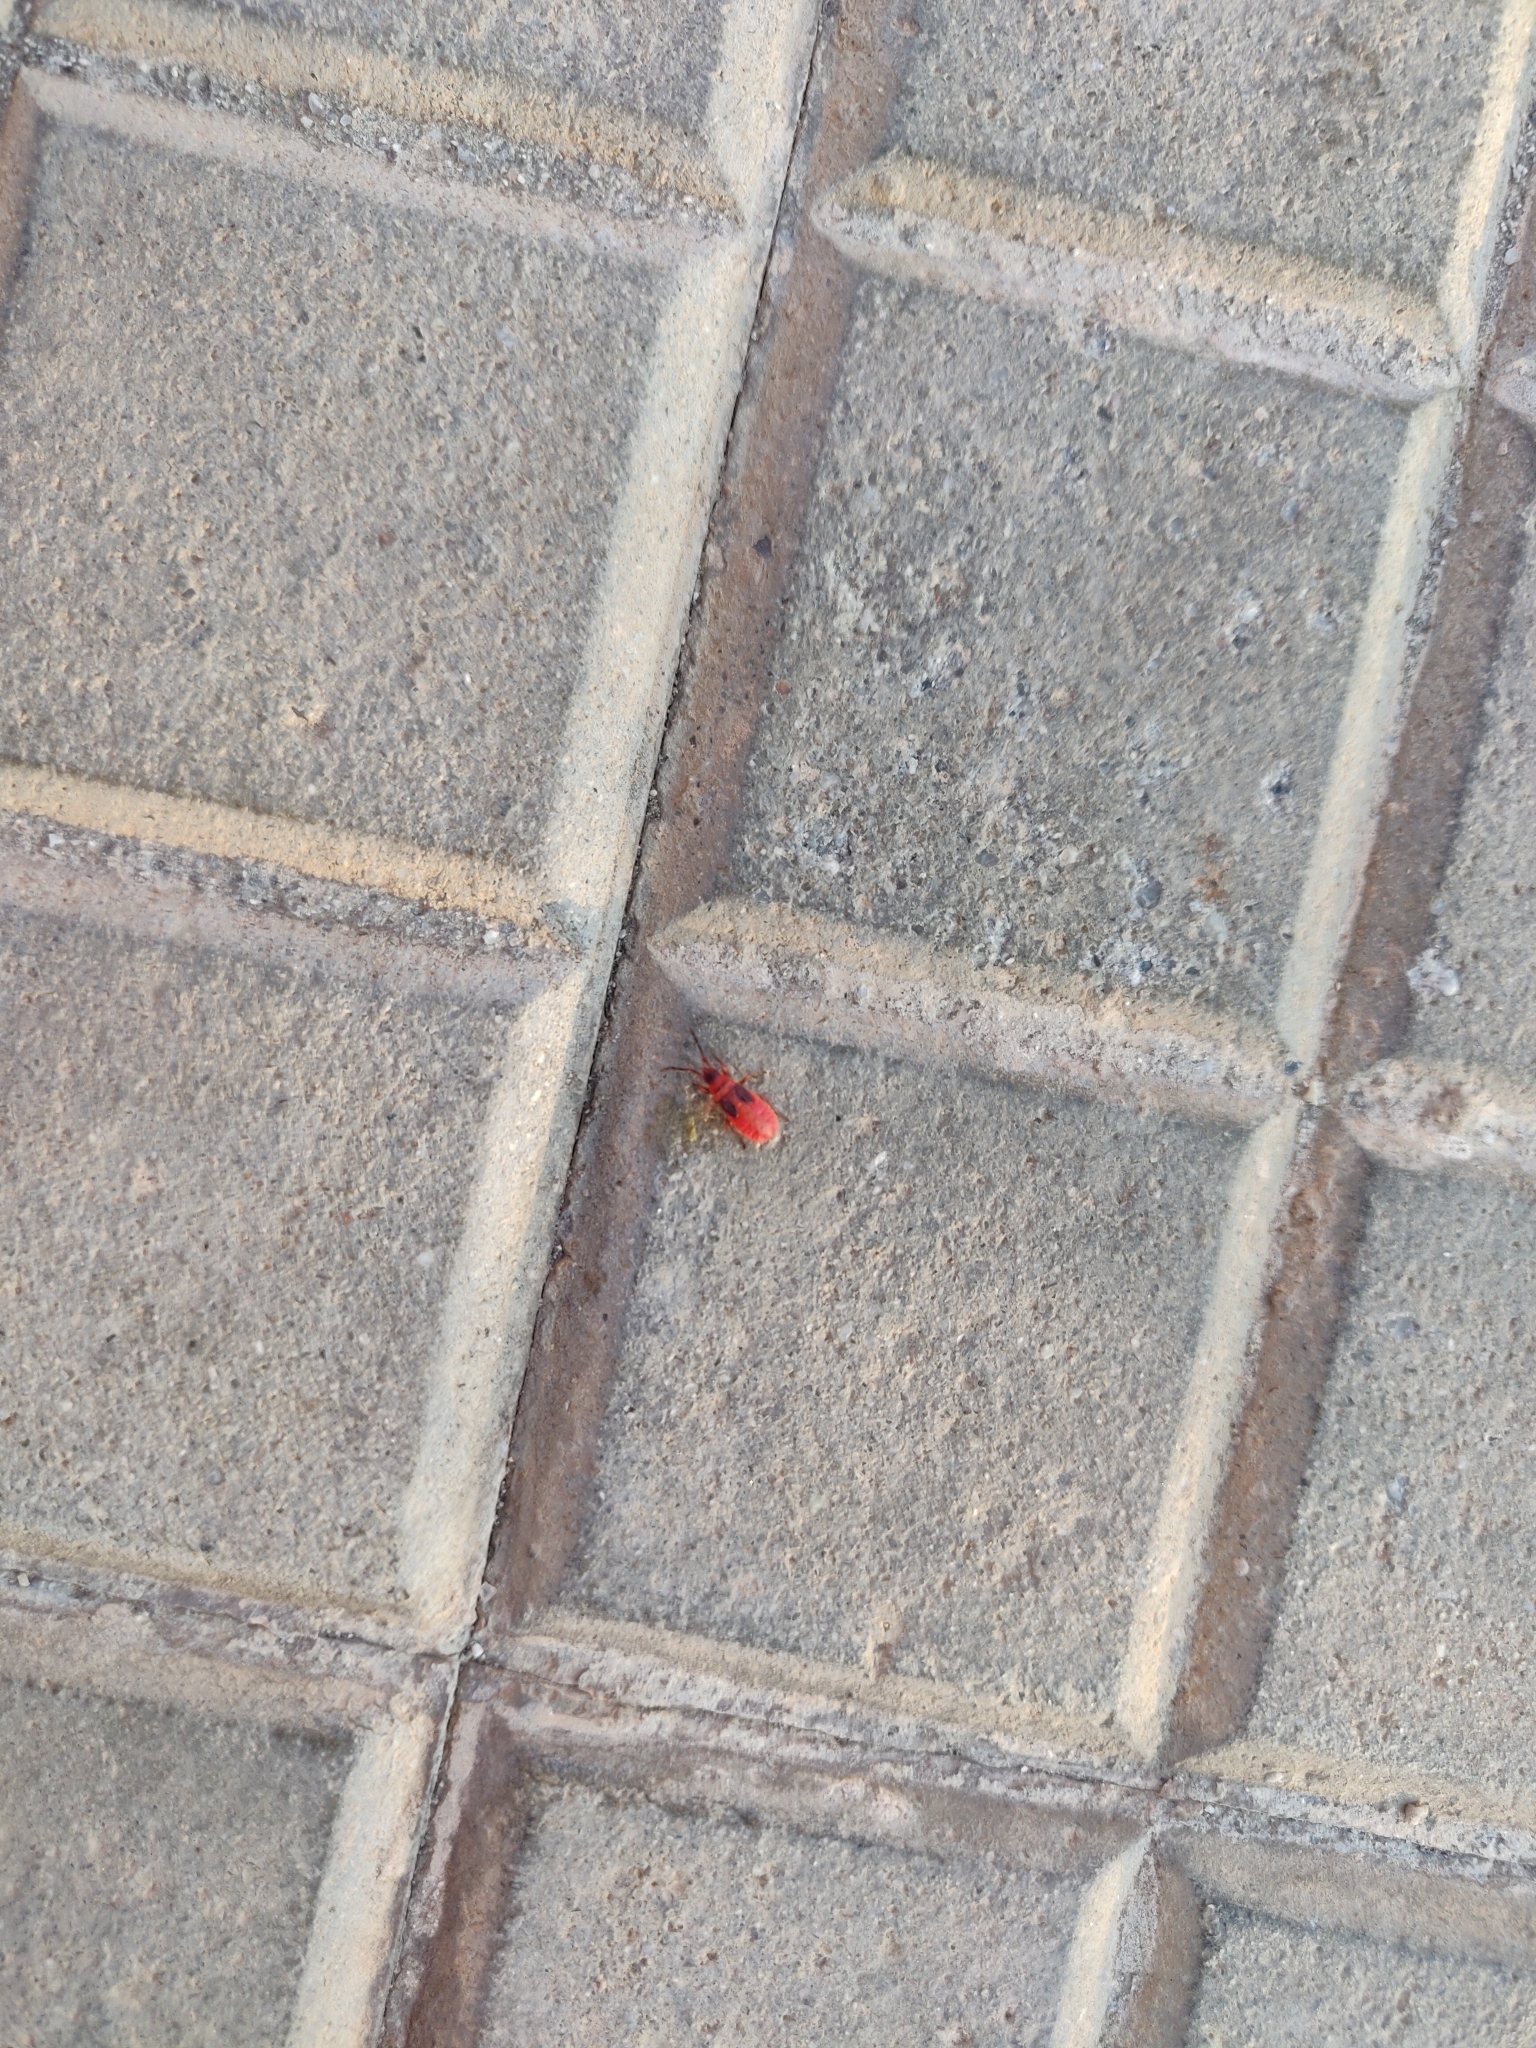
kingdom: Animalia
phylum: Arthropoda
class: Insecta
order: Hemiptera
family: Pyrrhocoridae
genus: Scantius
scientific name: Scantius aegyptius
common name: Red bug
